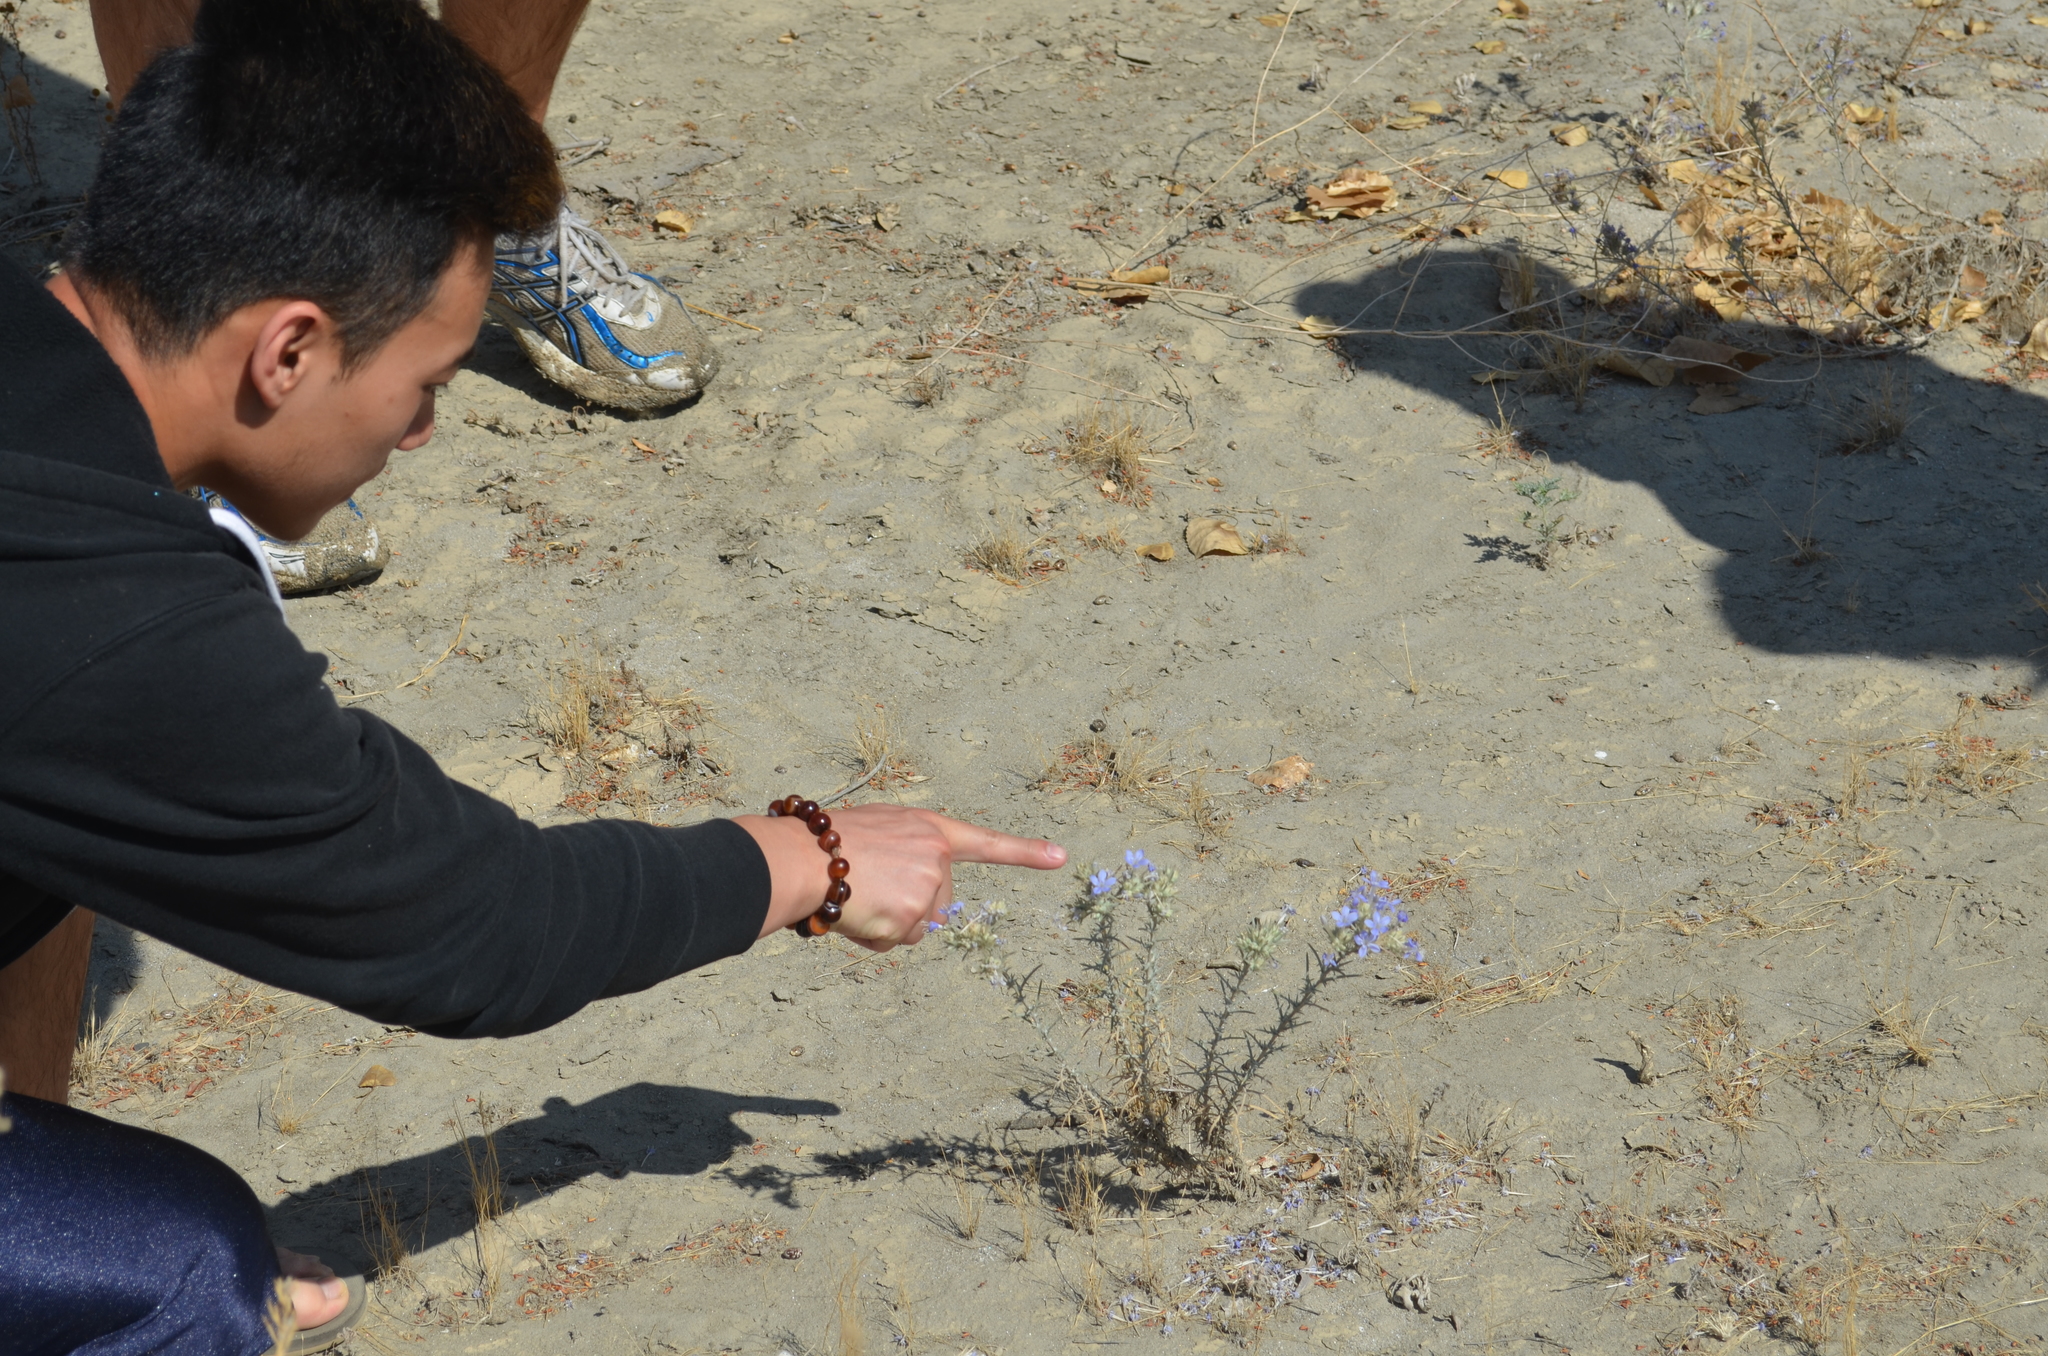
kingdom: Plantae
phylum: Tracheophyta
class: Magnoliopsida
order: Ericales
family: Polemoniaceae
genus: Eriastrum
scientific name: Eriastrum densifolium
